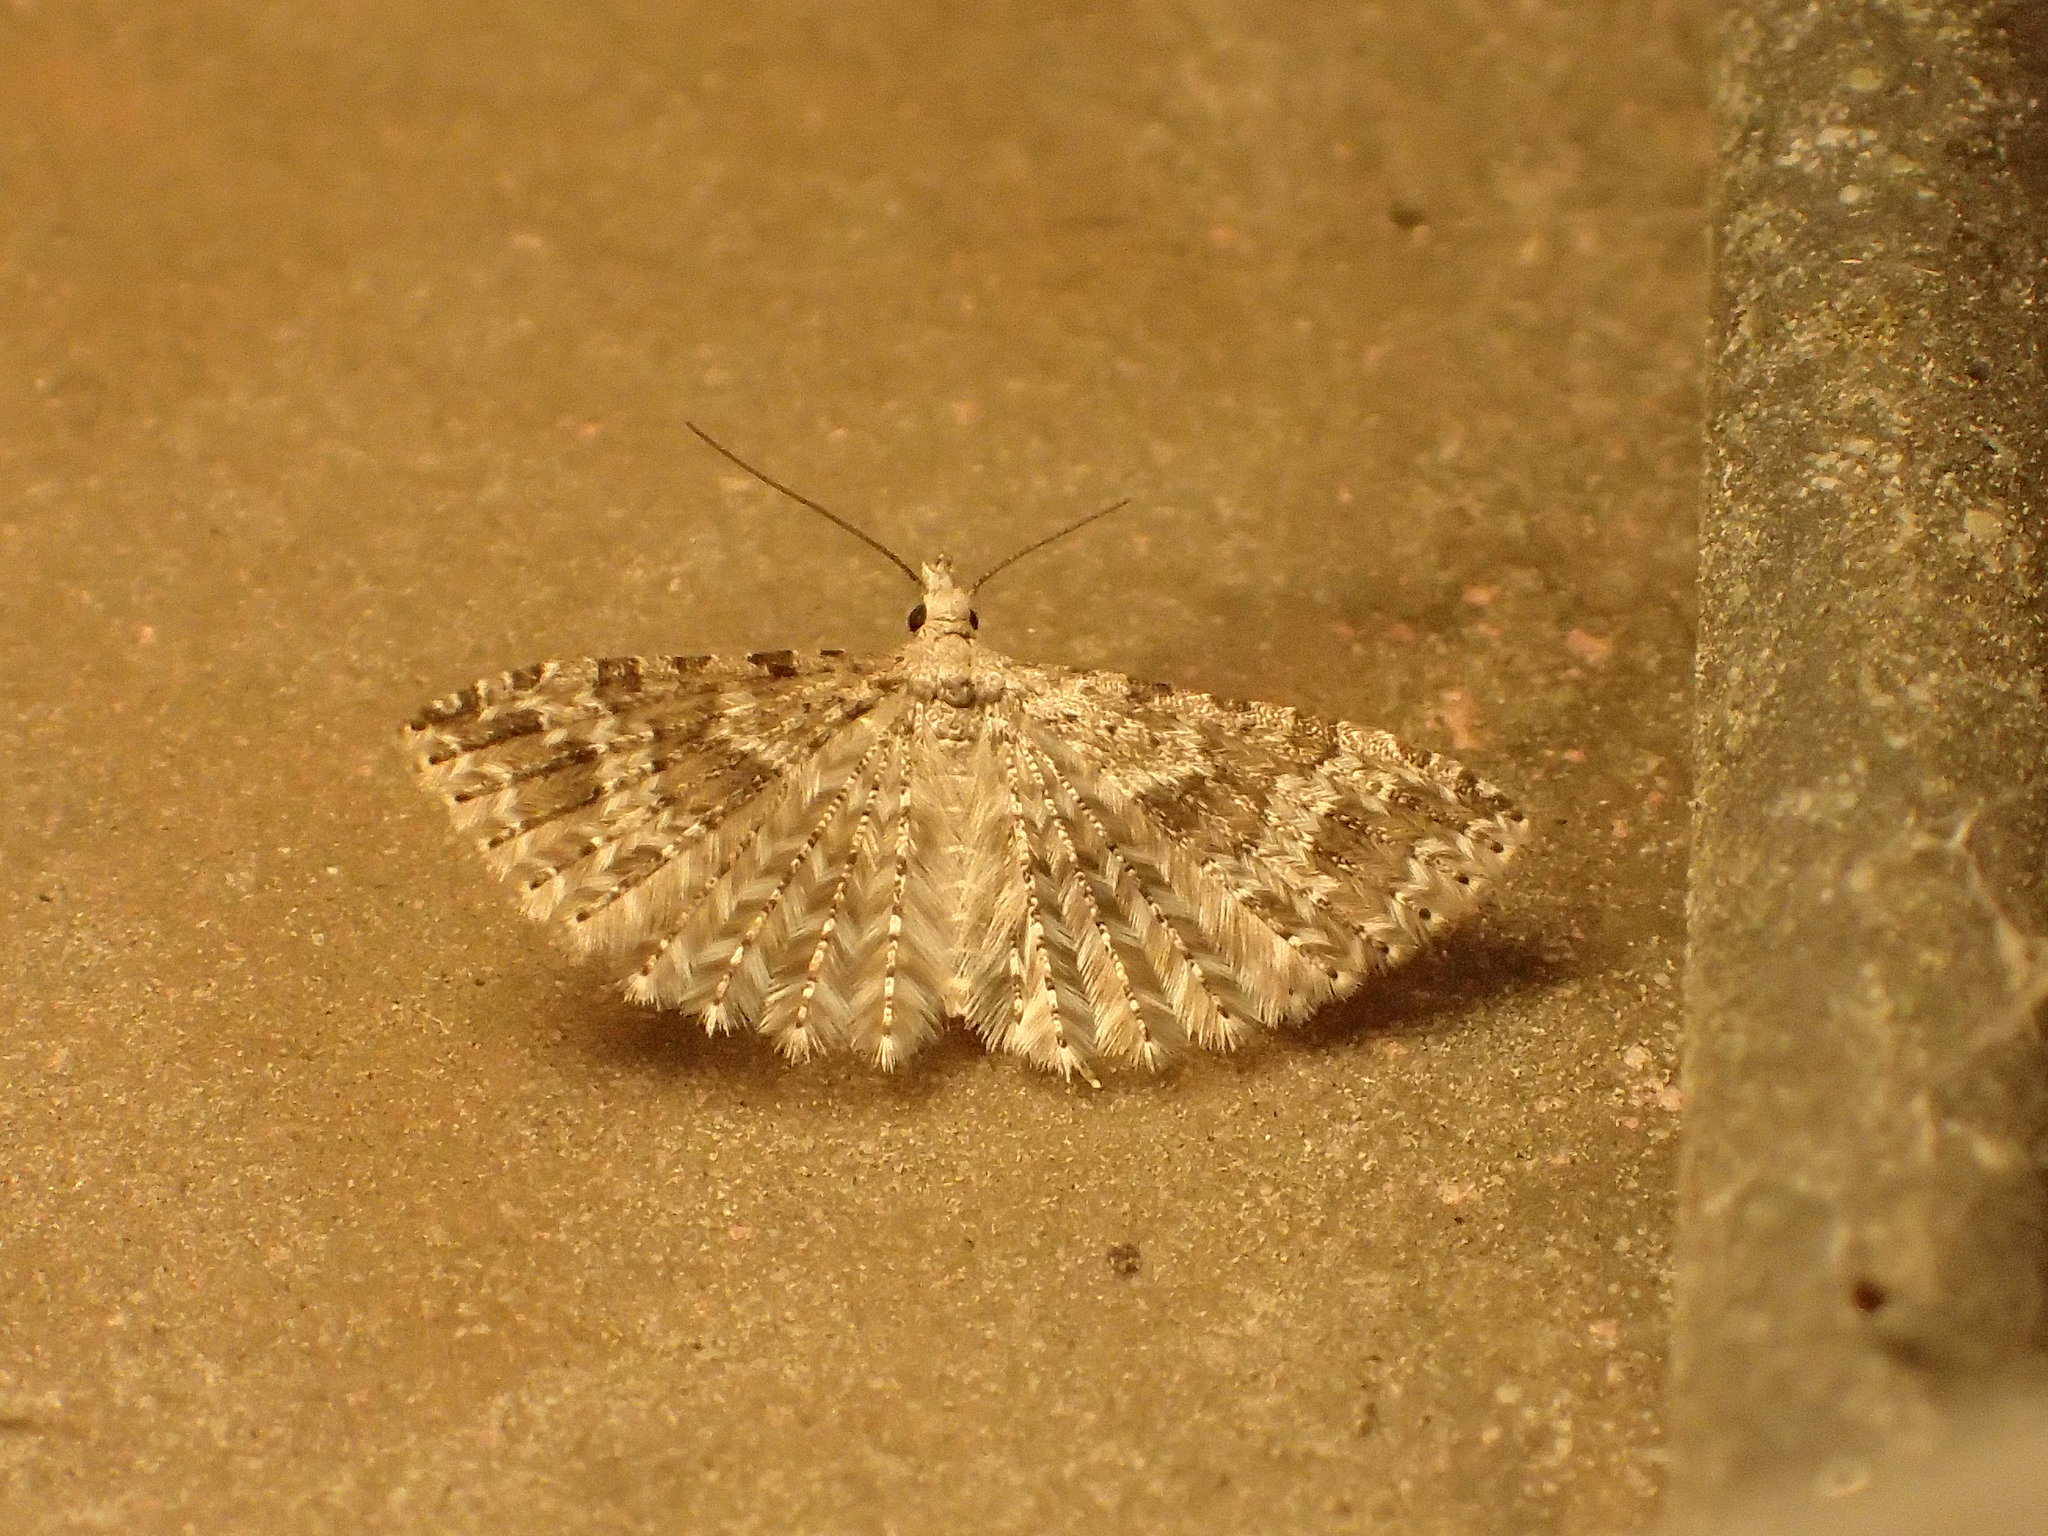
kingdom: Animalia
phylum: Arthropoda
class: Insecta
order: Lepidoptera
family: Alucitidae
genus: Alucita
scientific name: Alucita
